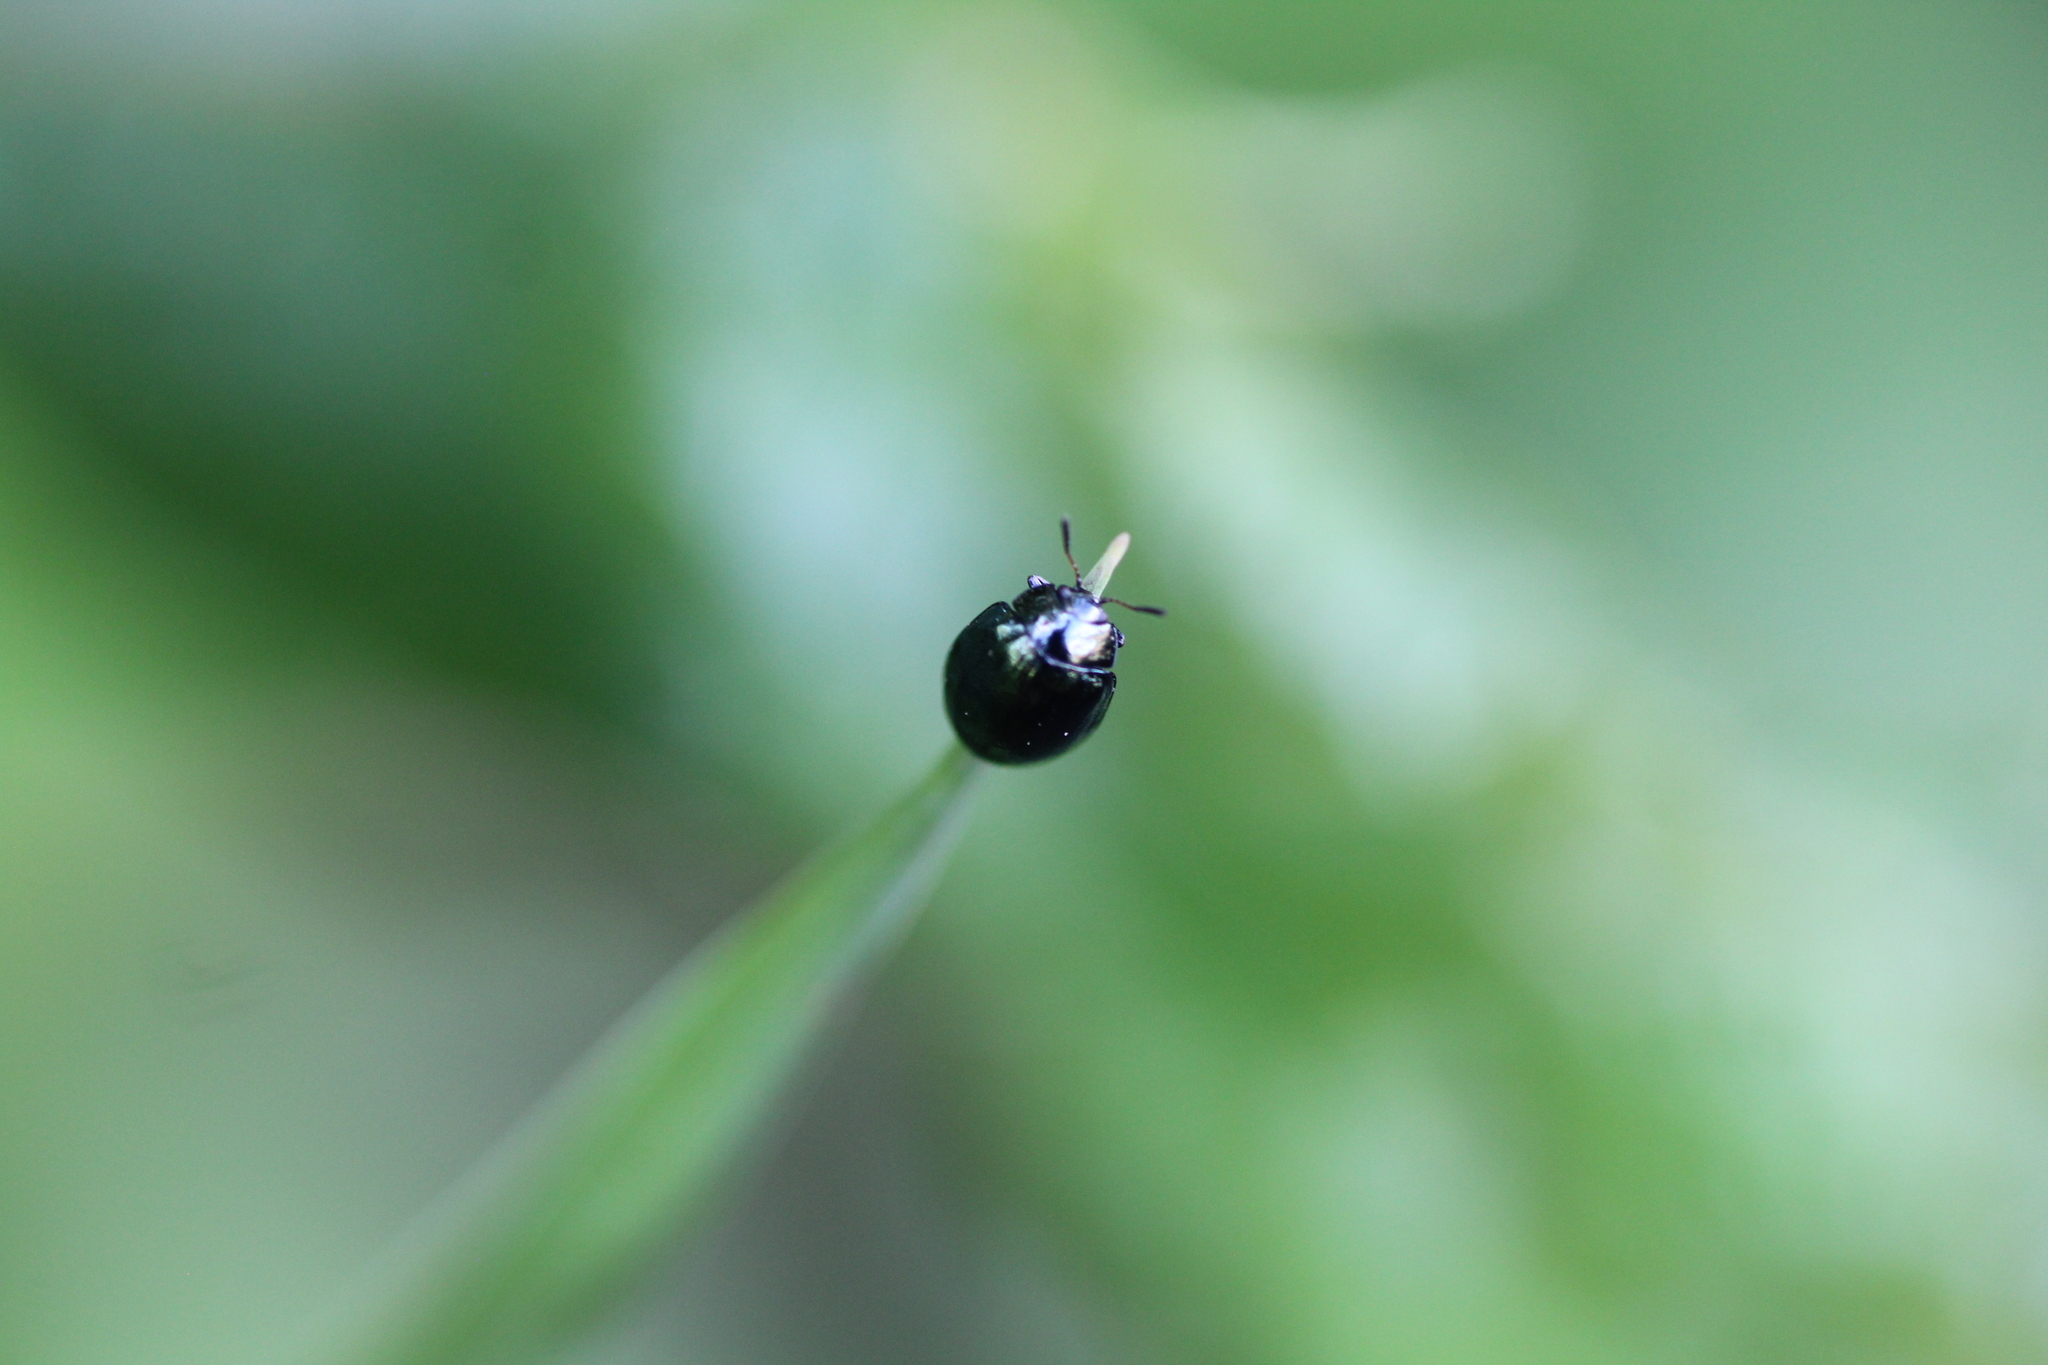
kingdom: Animalia
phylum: Arthropoda
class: Insecta
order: Coleoptera
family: Chrysomelidae
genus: Plagiodera
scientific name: Plagiodera versicolora
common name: Imported willow leaf beetle
